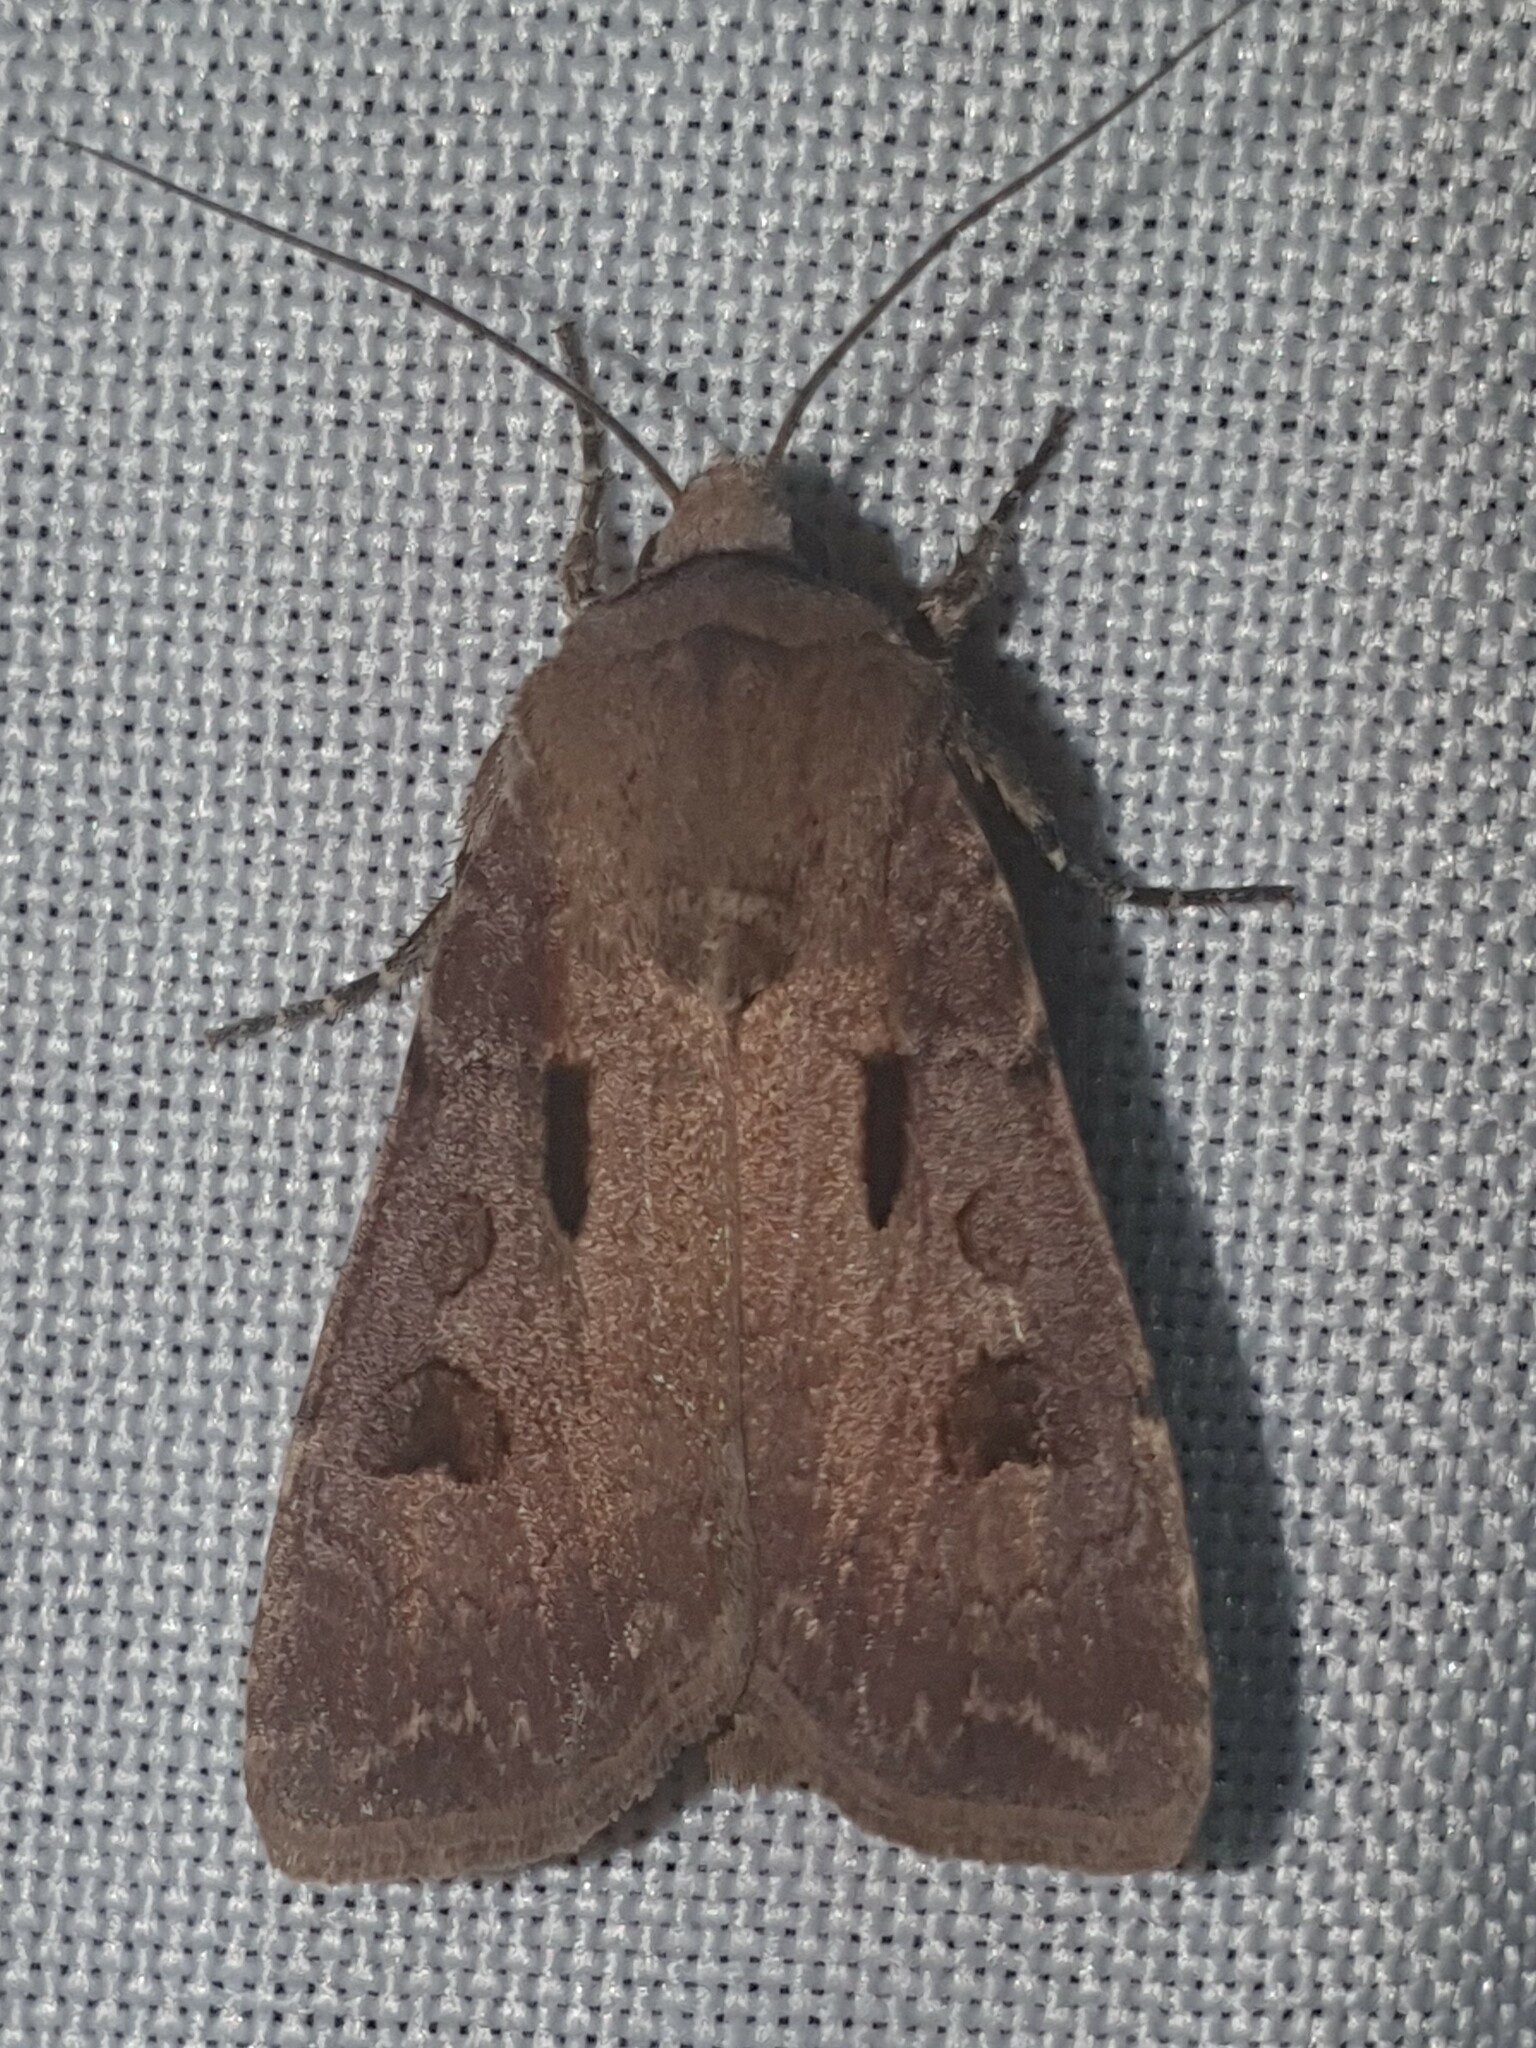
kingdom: Animalia
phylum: Arthropoda
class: Insecta
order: Lepidoptera
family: Noctuidae
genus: Agrotis
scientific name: Agrotis exclamationis
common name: Heart and dart
